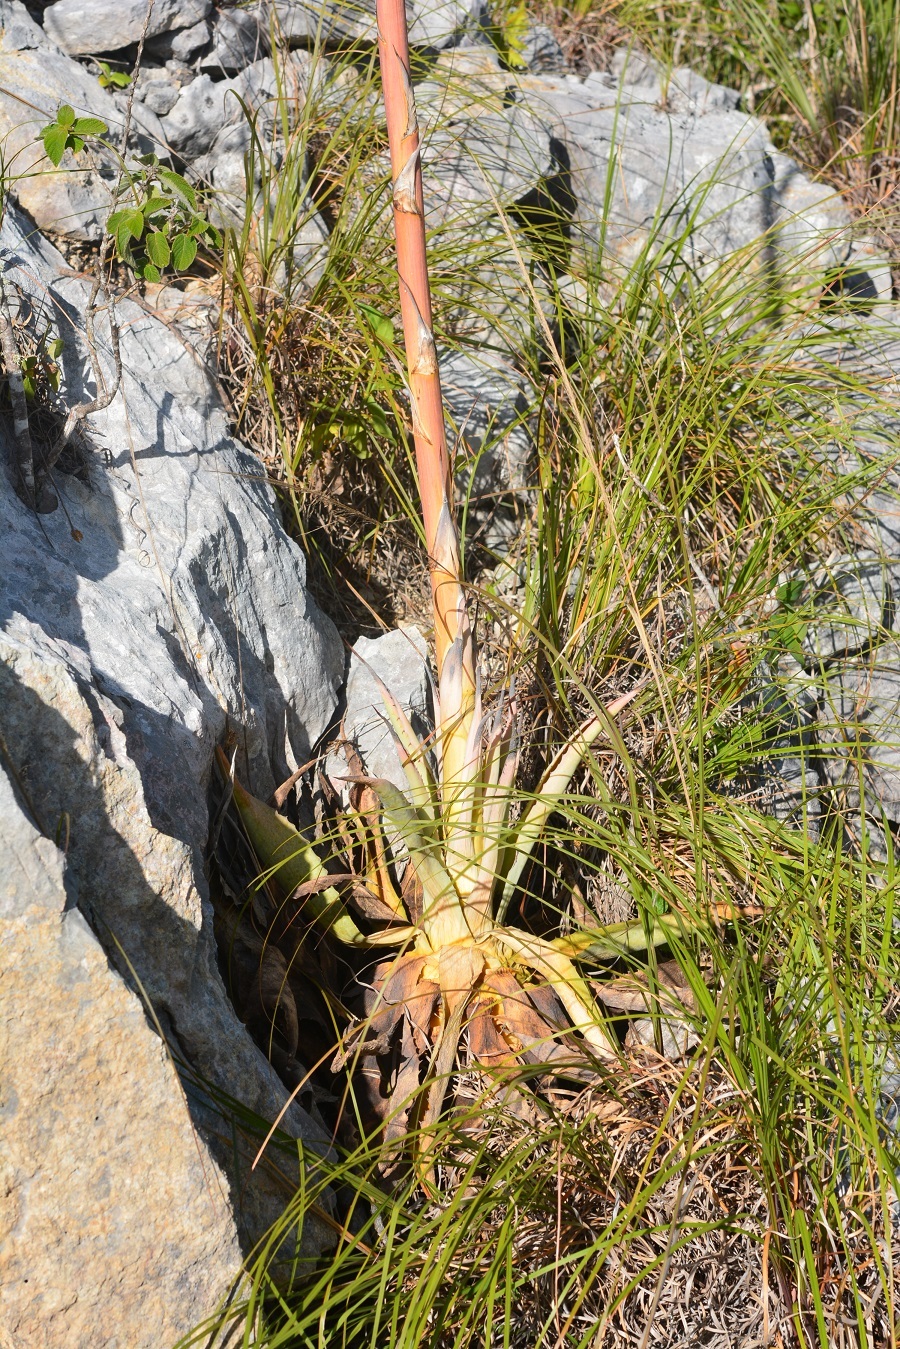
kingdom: Plantae
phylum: Tracheophyta
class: Liliopsida
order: Asparagales
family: Asparagaceae
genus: Agave
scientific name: Agave kewensis
